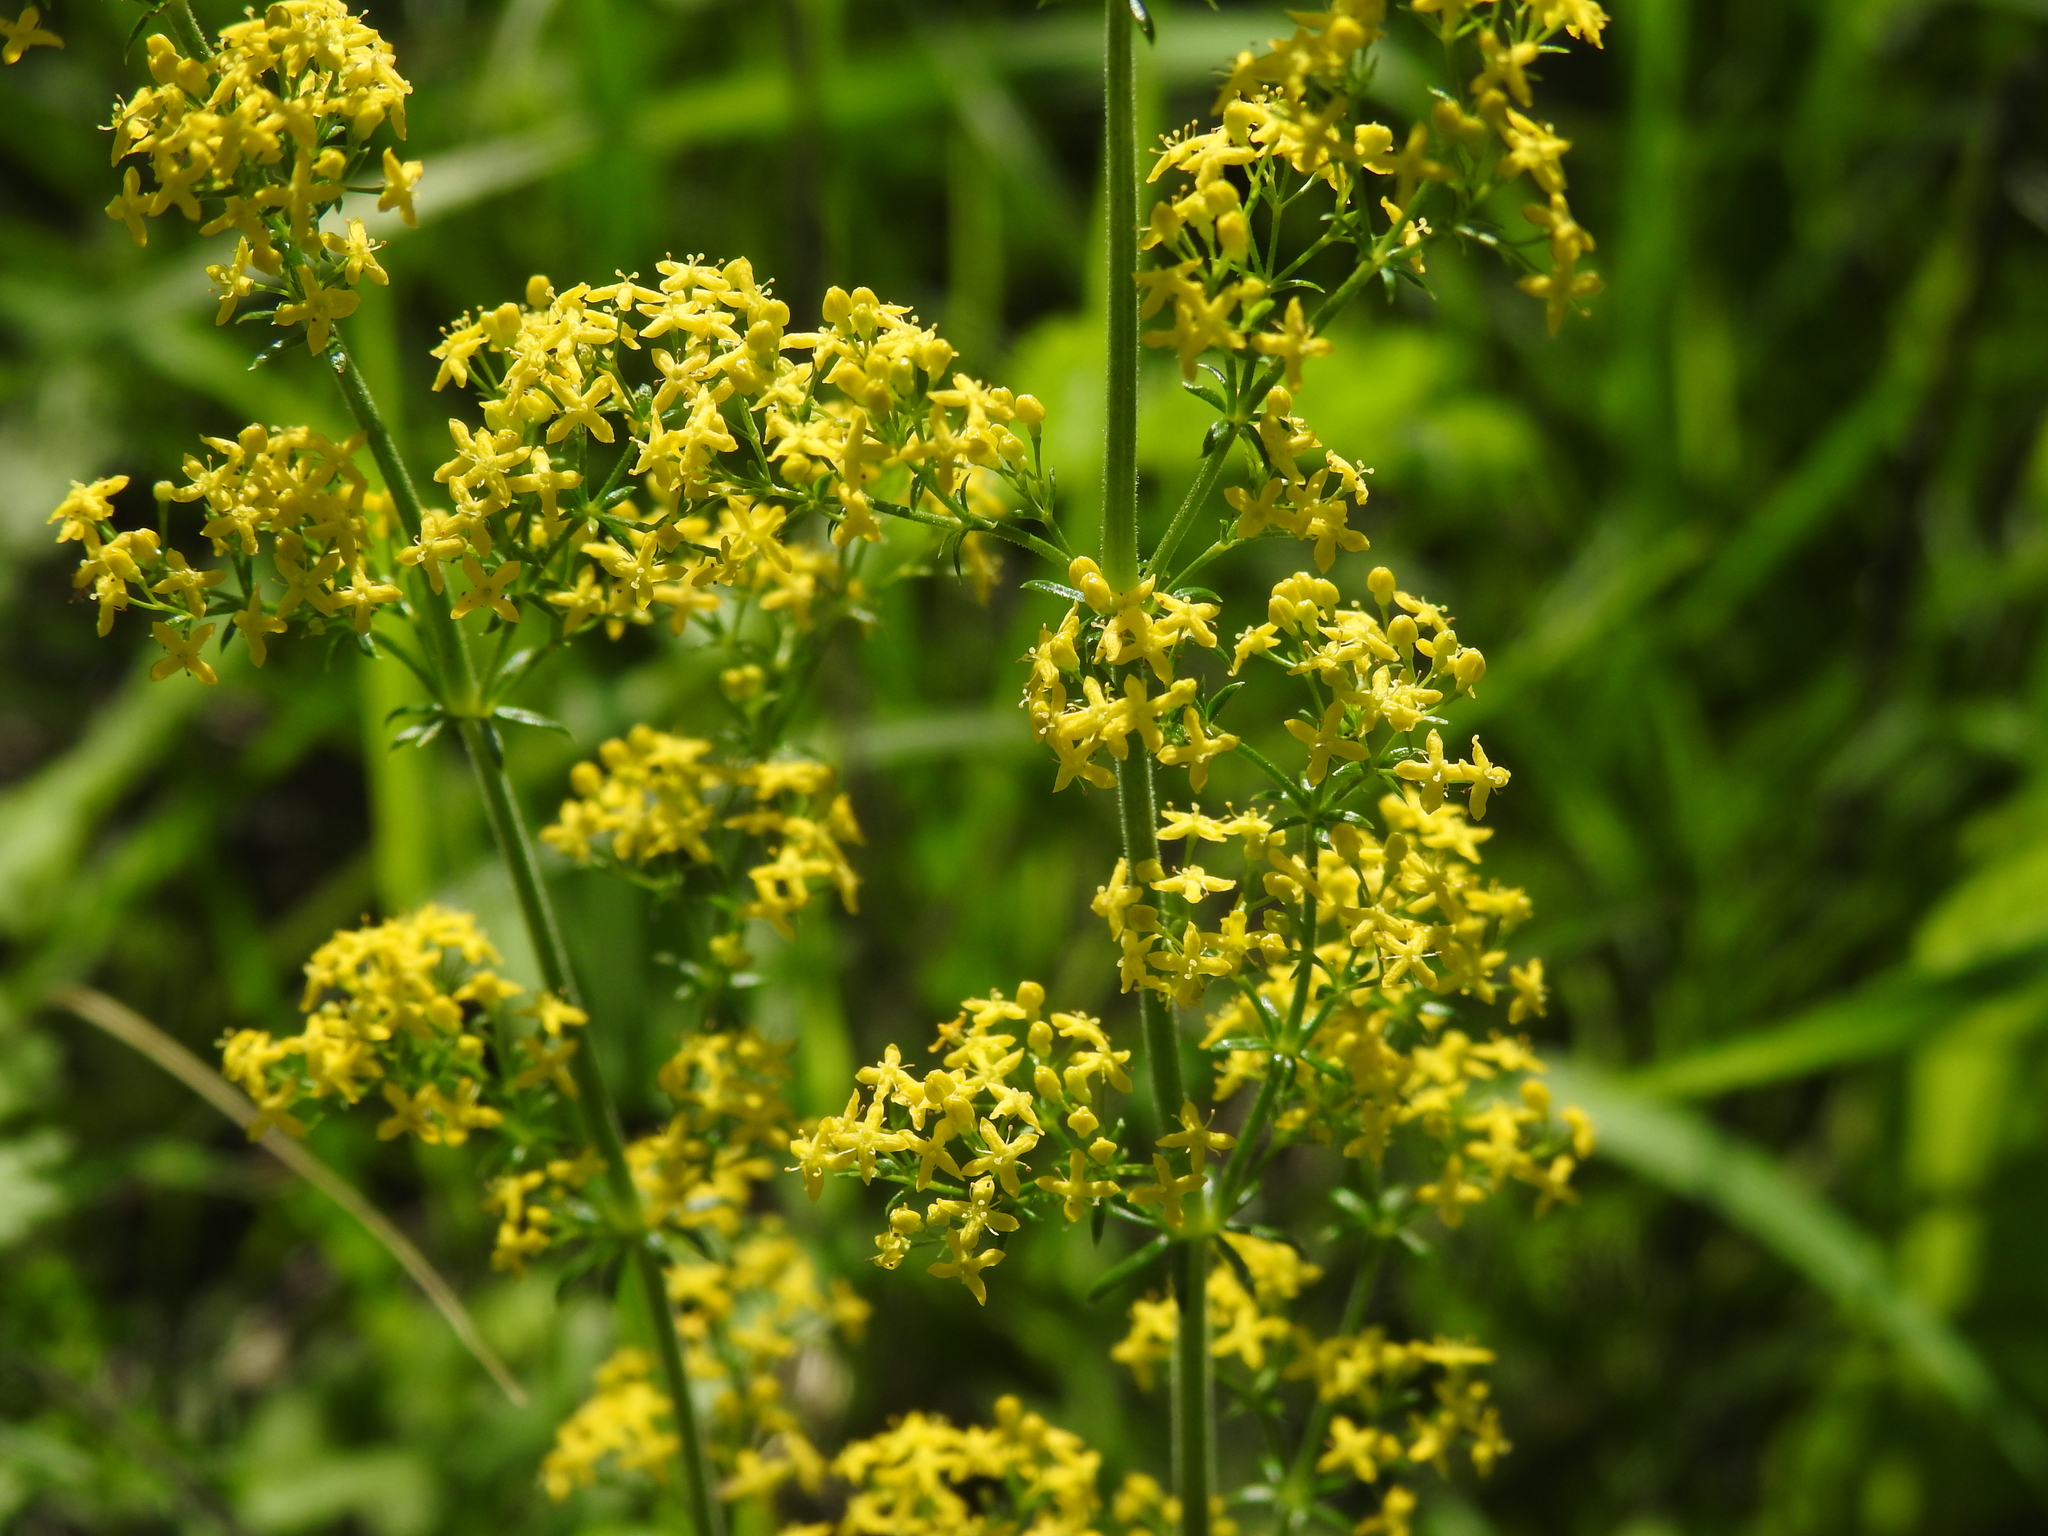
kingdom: Plantae
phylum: Tracheophyta
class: Magnoliopsida
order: Gentianales
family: Rubiaceae
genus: Galium
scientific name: Galium verum
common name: Lady's bedstraw
